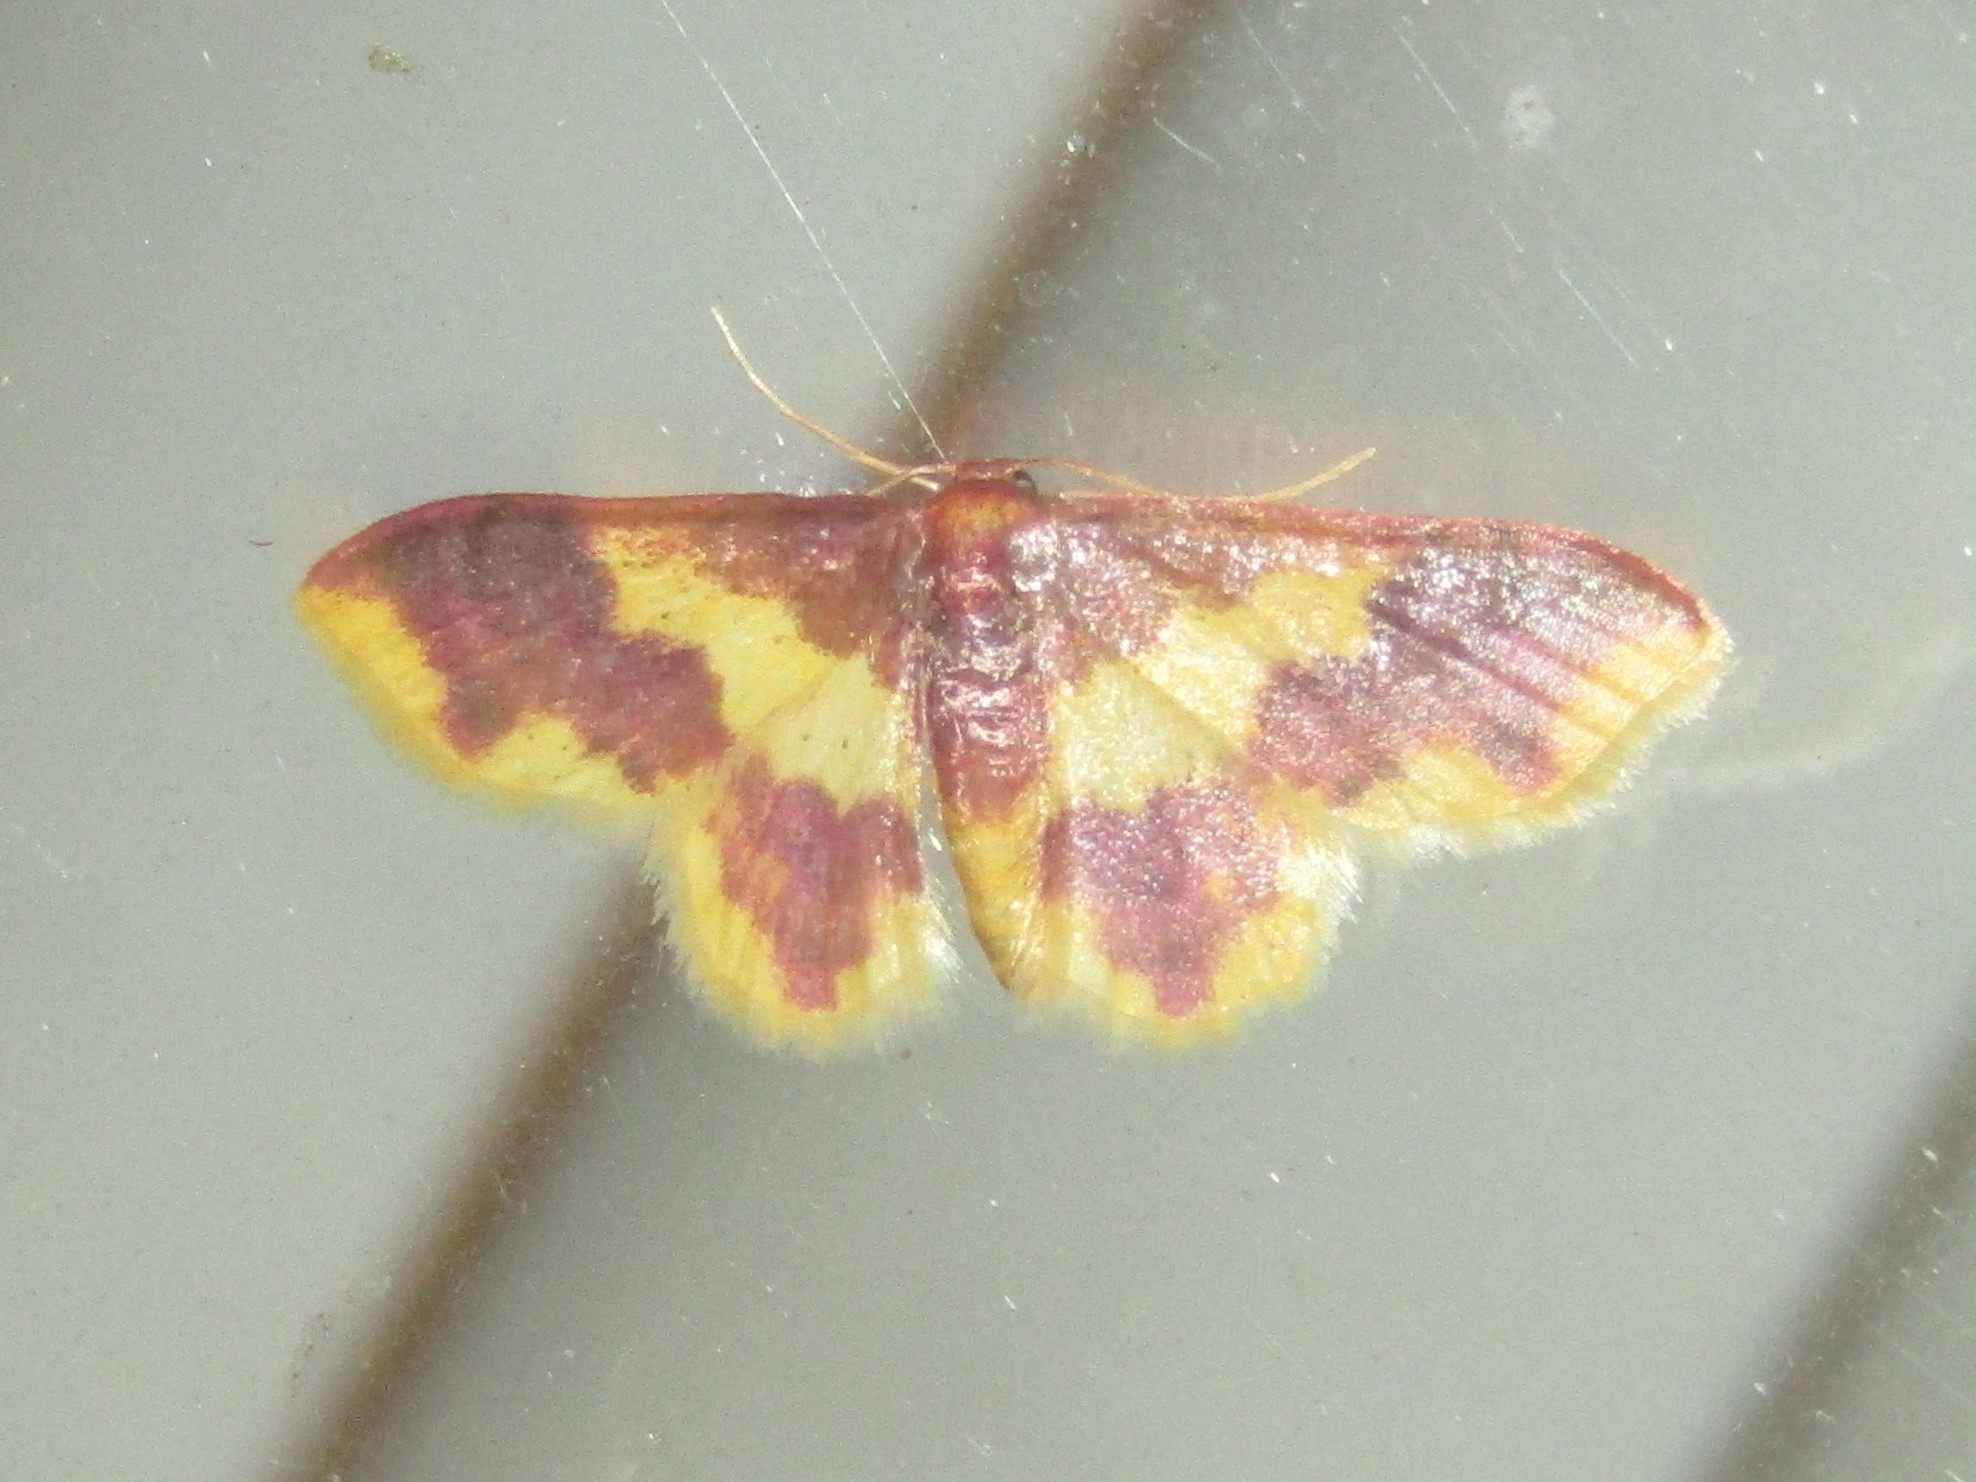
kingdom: Animalia
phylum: Arthropoda
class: Insecta
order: Lepidoptera
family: Geometridae
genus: Lophosis
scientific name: Lophosis labeculata
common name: Stained lophosis moth
